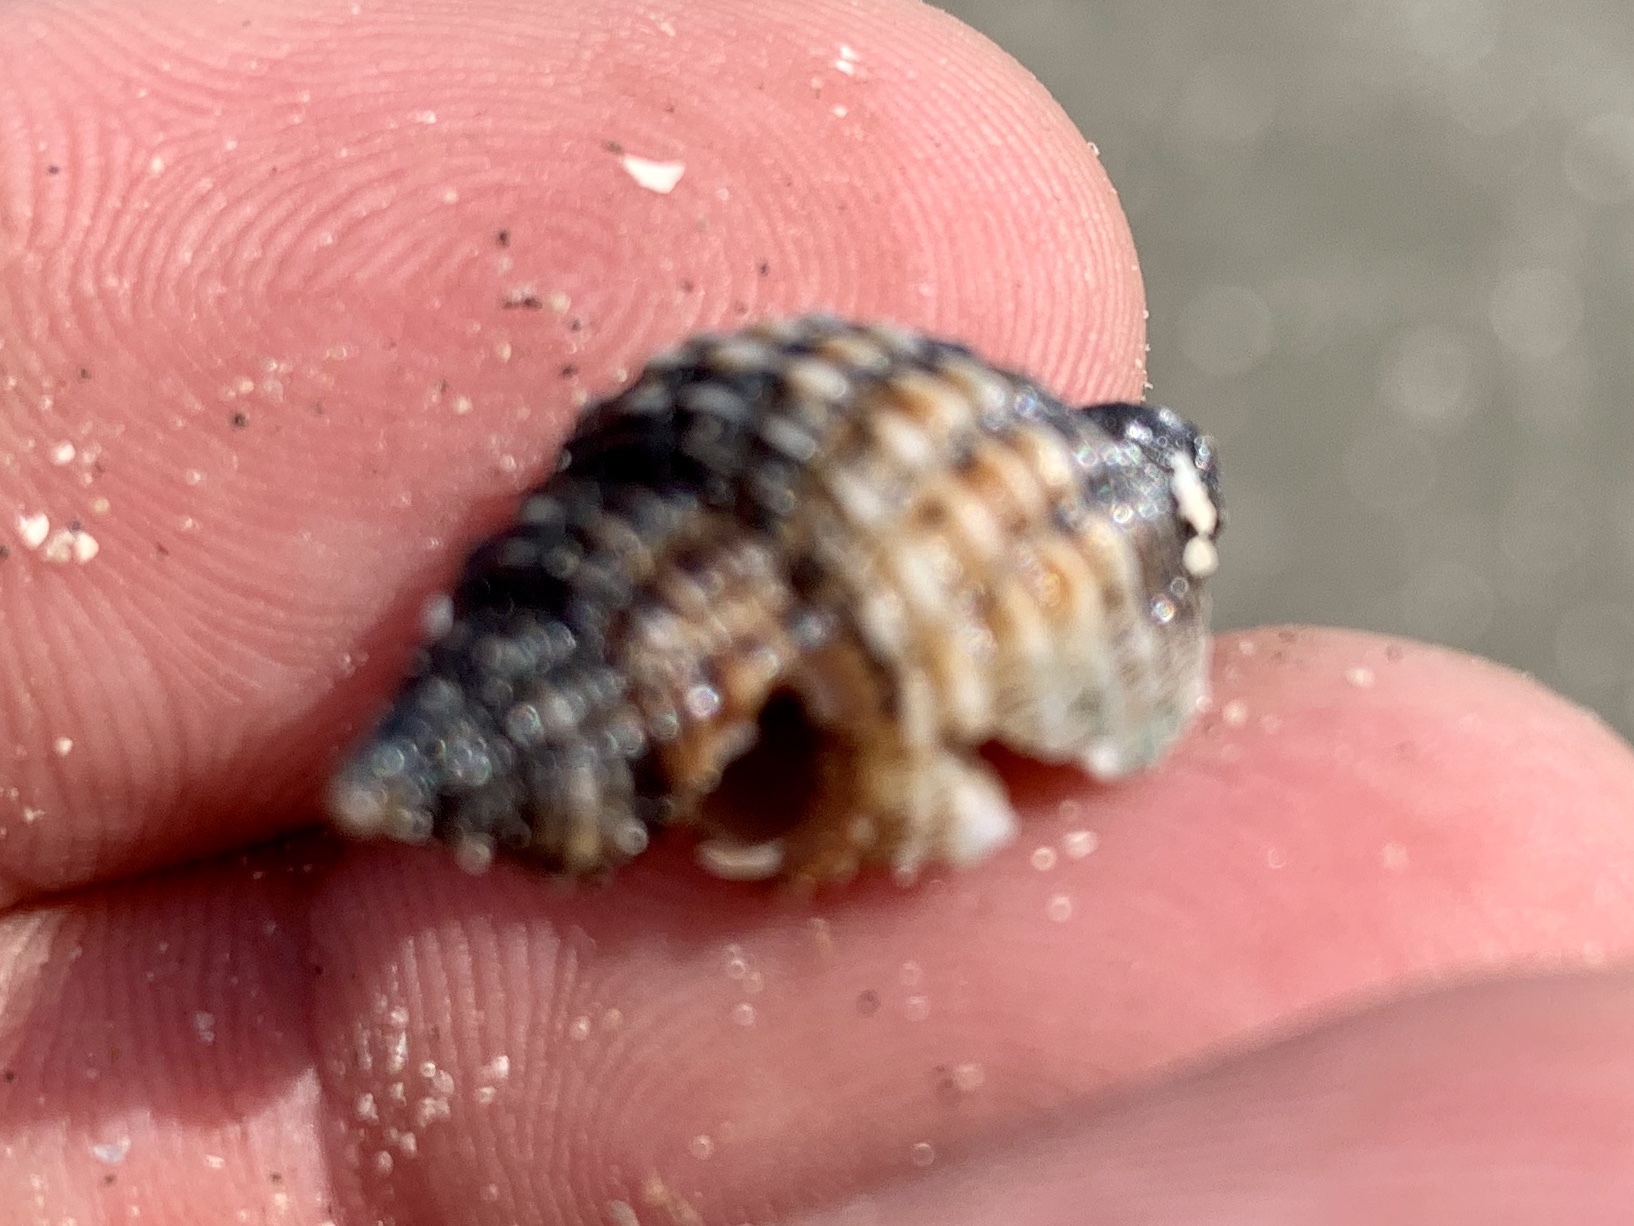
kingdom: Animalia
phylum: Mollusca
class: Gastropoda
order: Neogastropoda
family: Pisaniidae
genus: Solenosteira
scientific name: Solenosteira cancellaria
